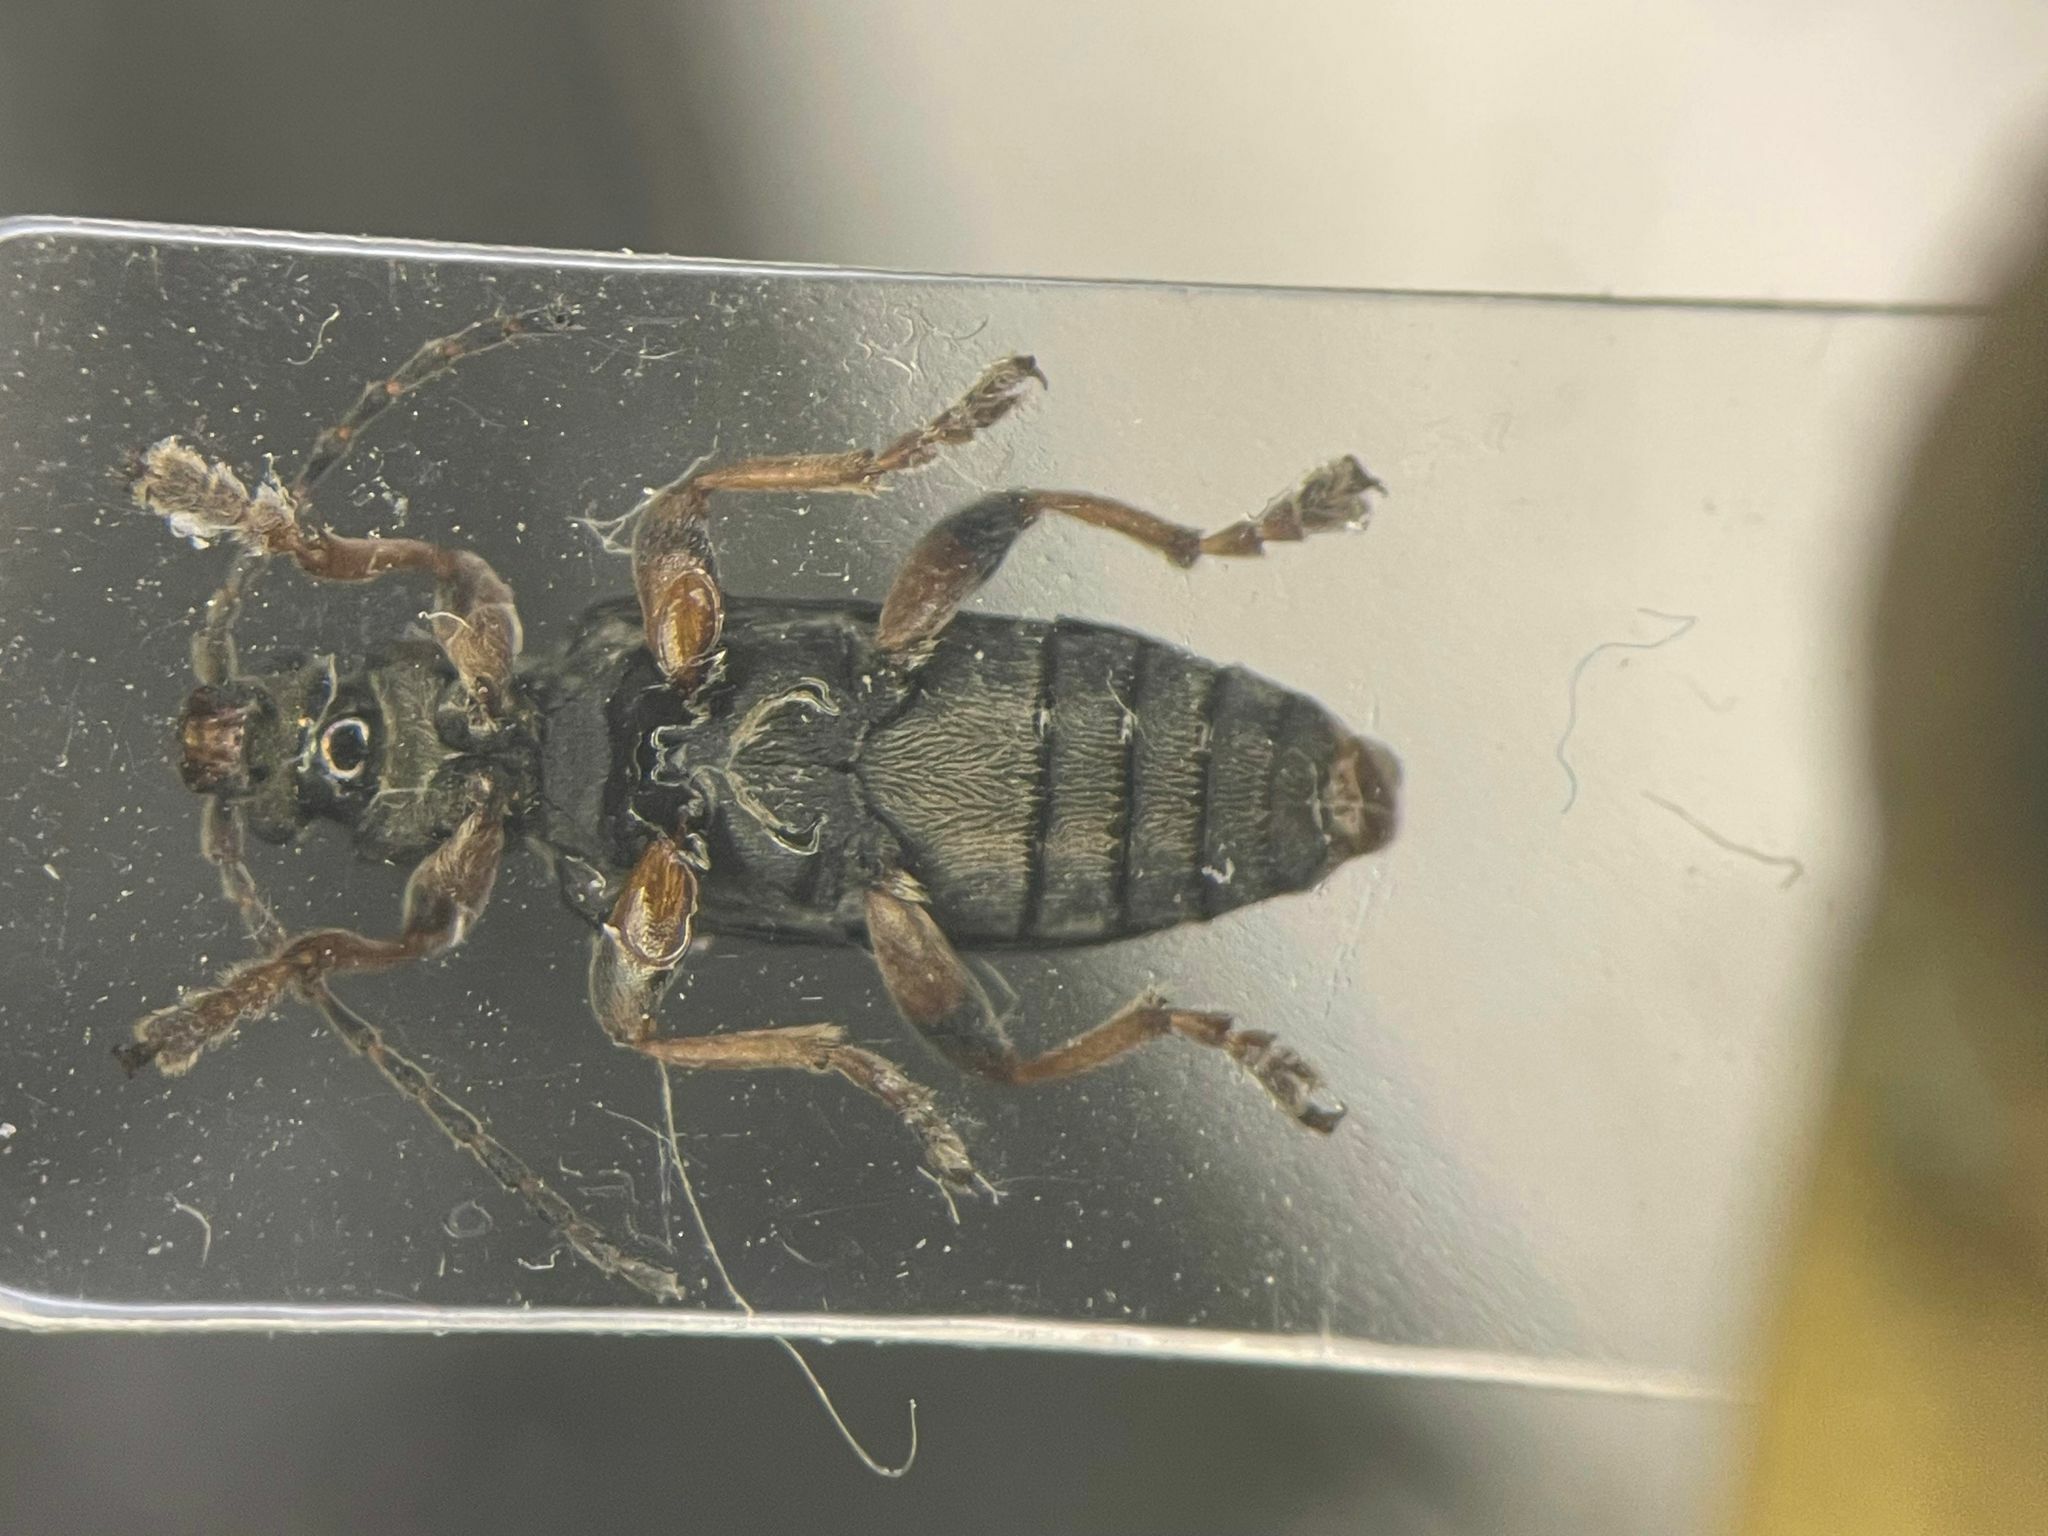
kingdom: Animalia
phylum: Arthropoda
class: Insecta
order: Coleoptera
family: Chrysomelidae
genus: Plateumaris
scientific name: Plateumaris germari
